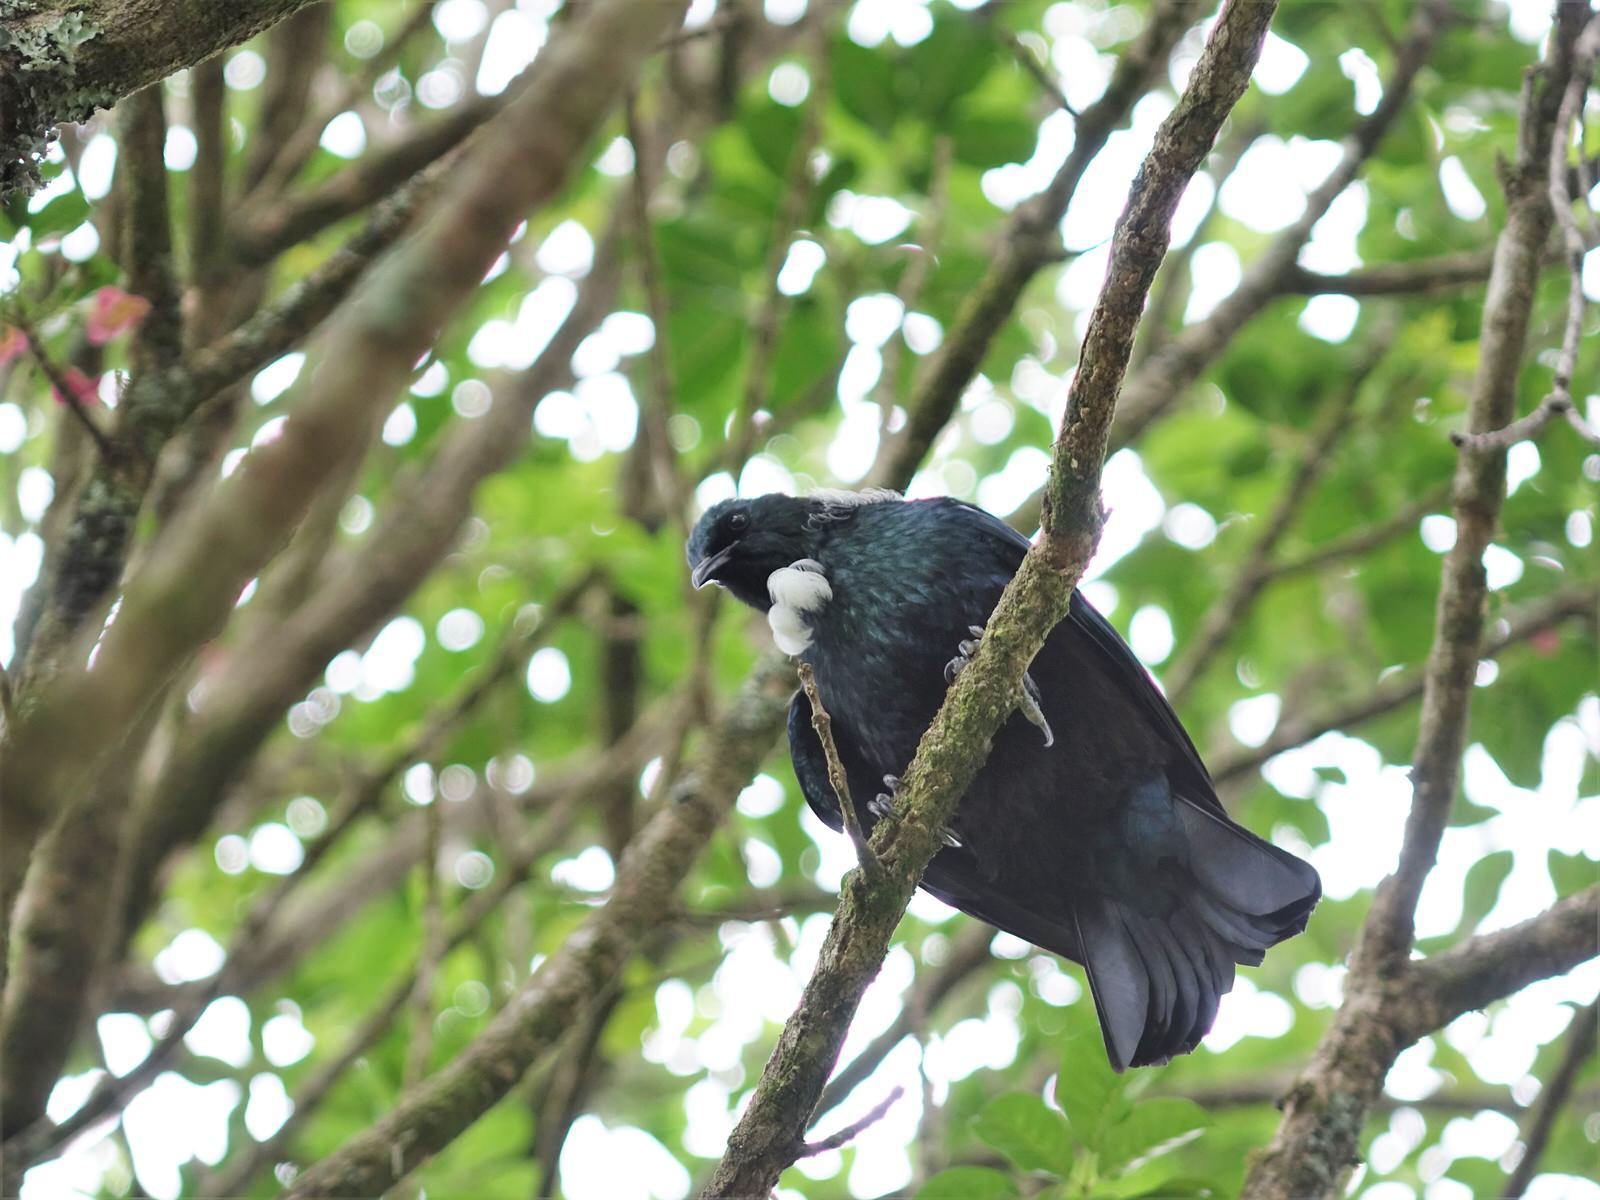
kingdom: Animalia
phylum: Chordata
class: Aves
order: Passeriformes
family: Meliphagidae
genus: Prosthemadera
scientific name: Prosthemadera novaeseelandiae
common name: Tui
